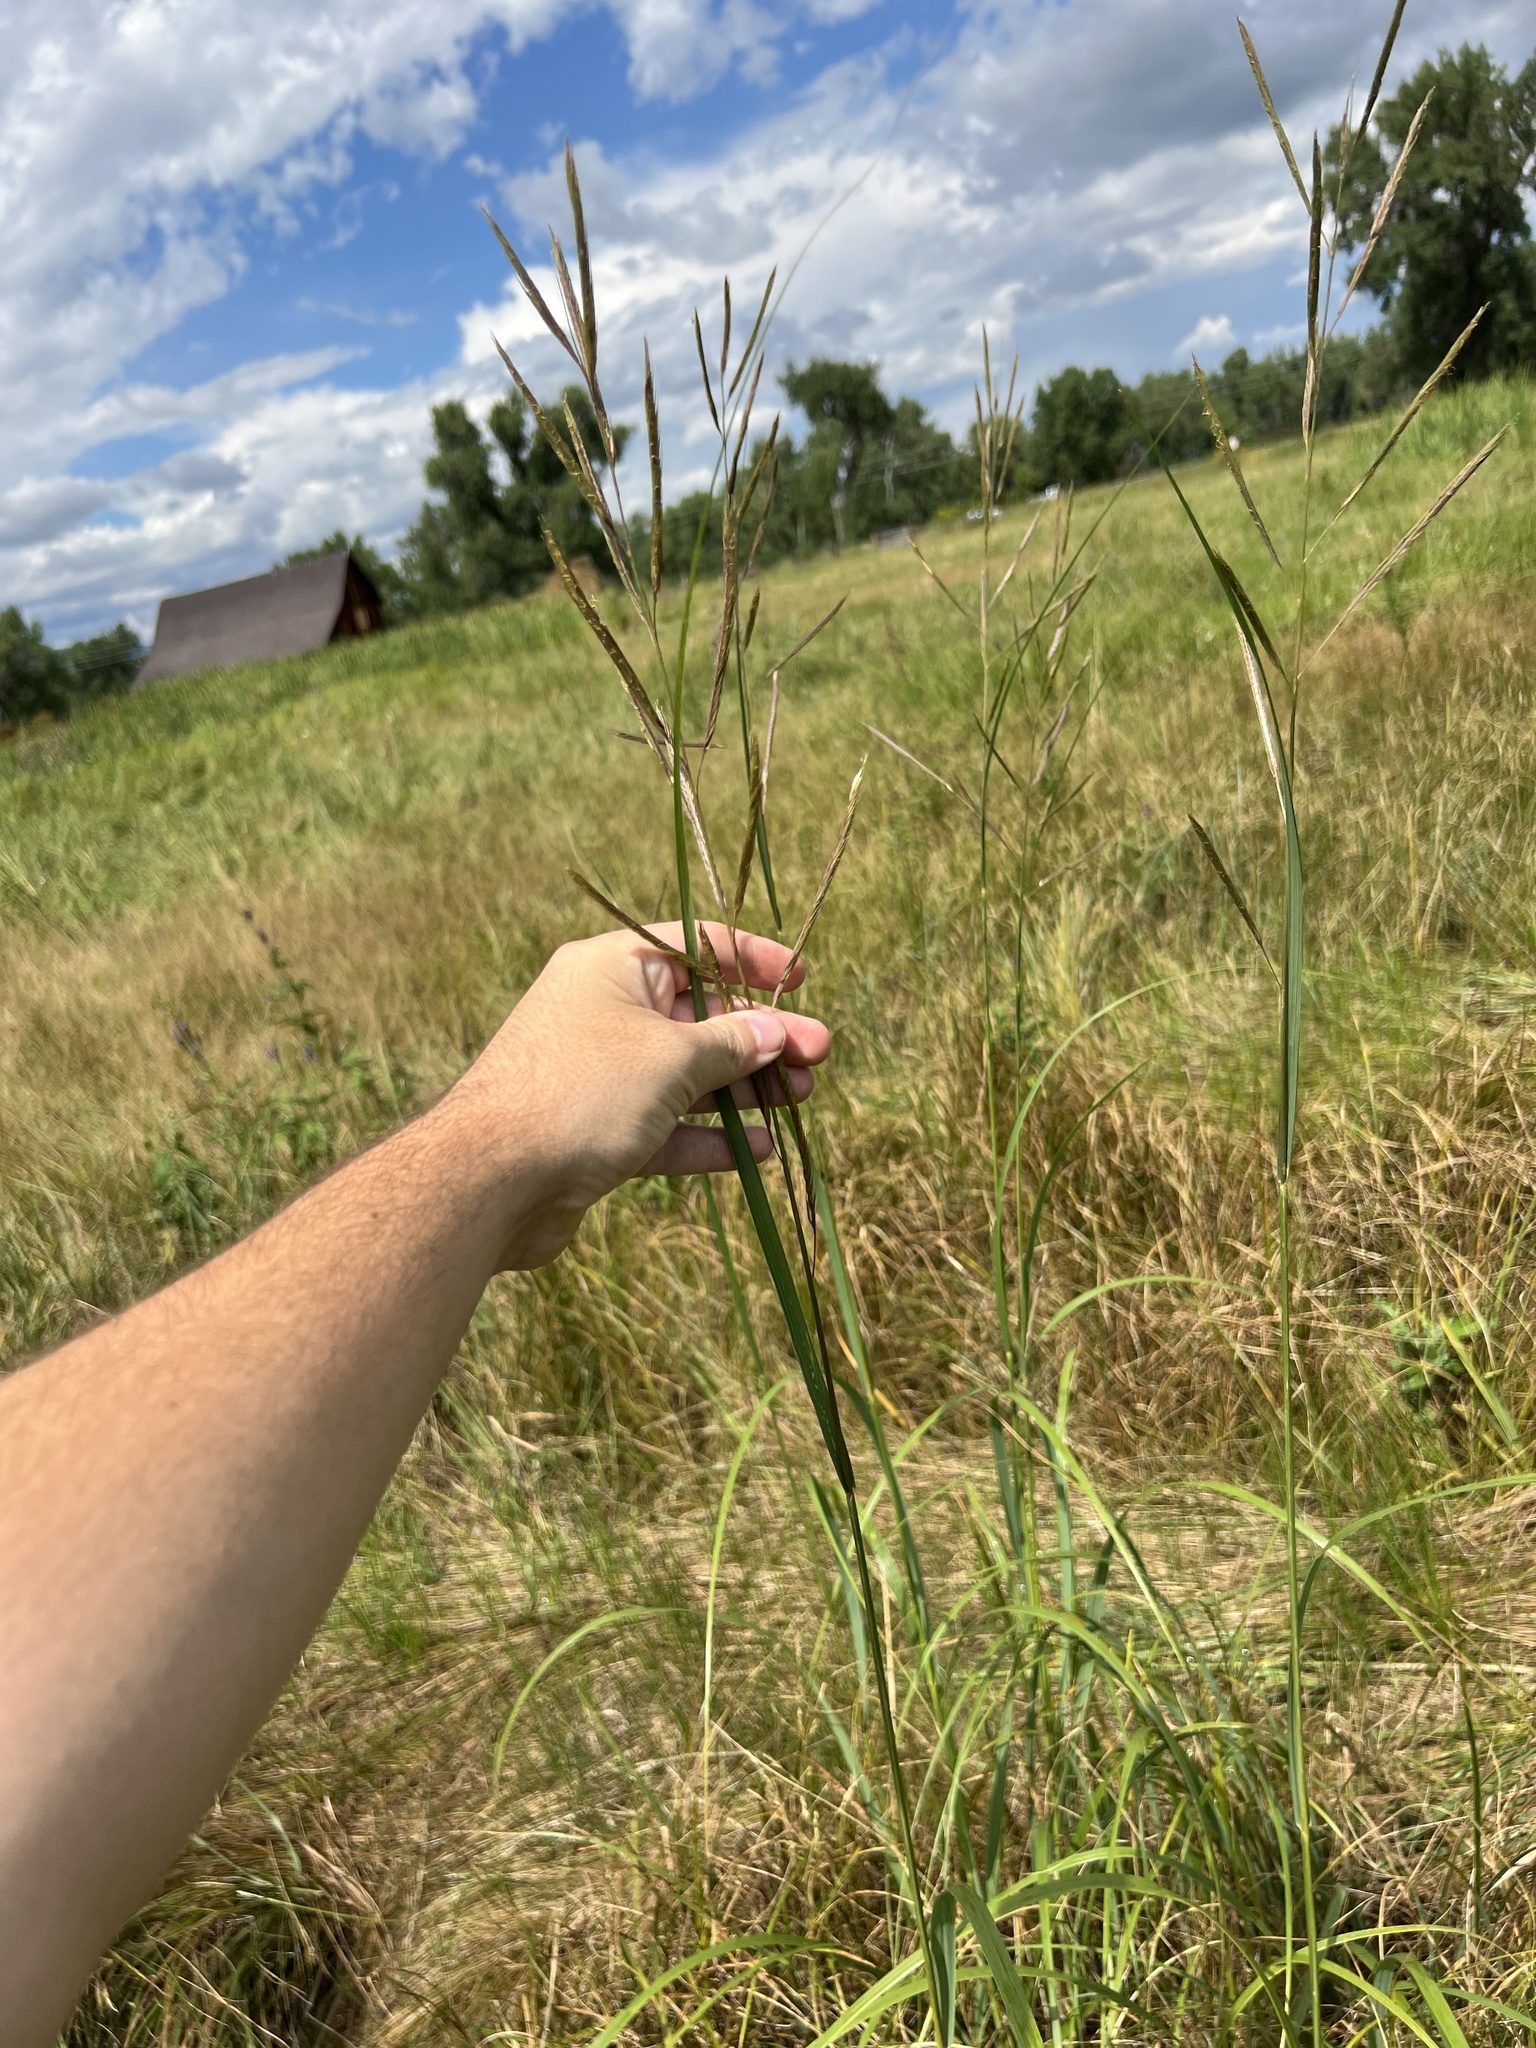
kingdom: Plantae
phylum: Tracheophyta
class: Liliopsida
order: Poales
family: Poaceae
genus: Sporobolus
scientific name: Sporobolus michauxianus
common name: Freshwater cordgrass
